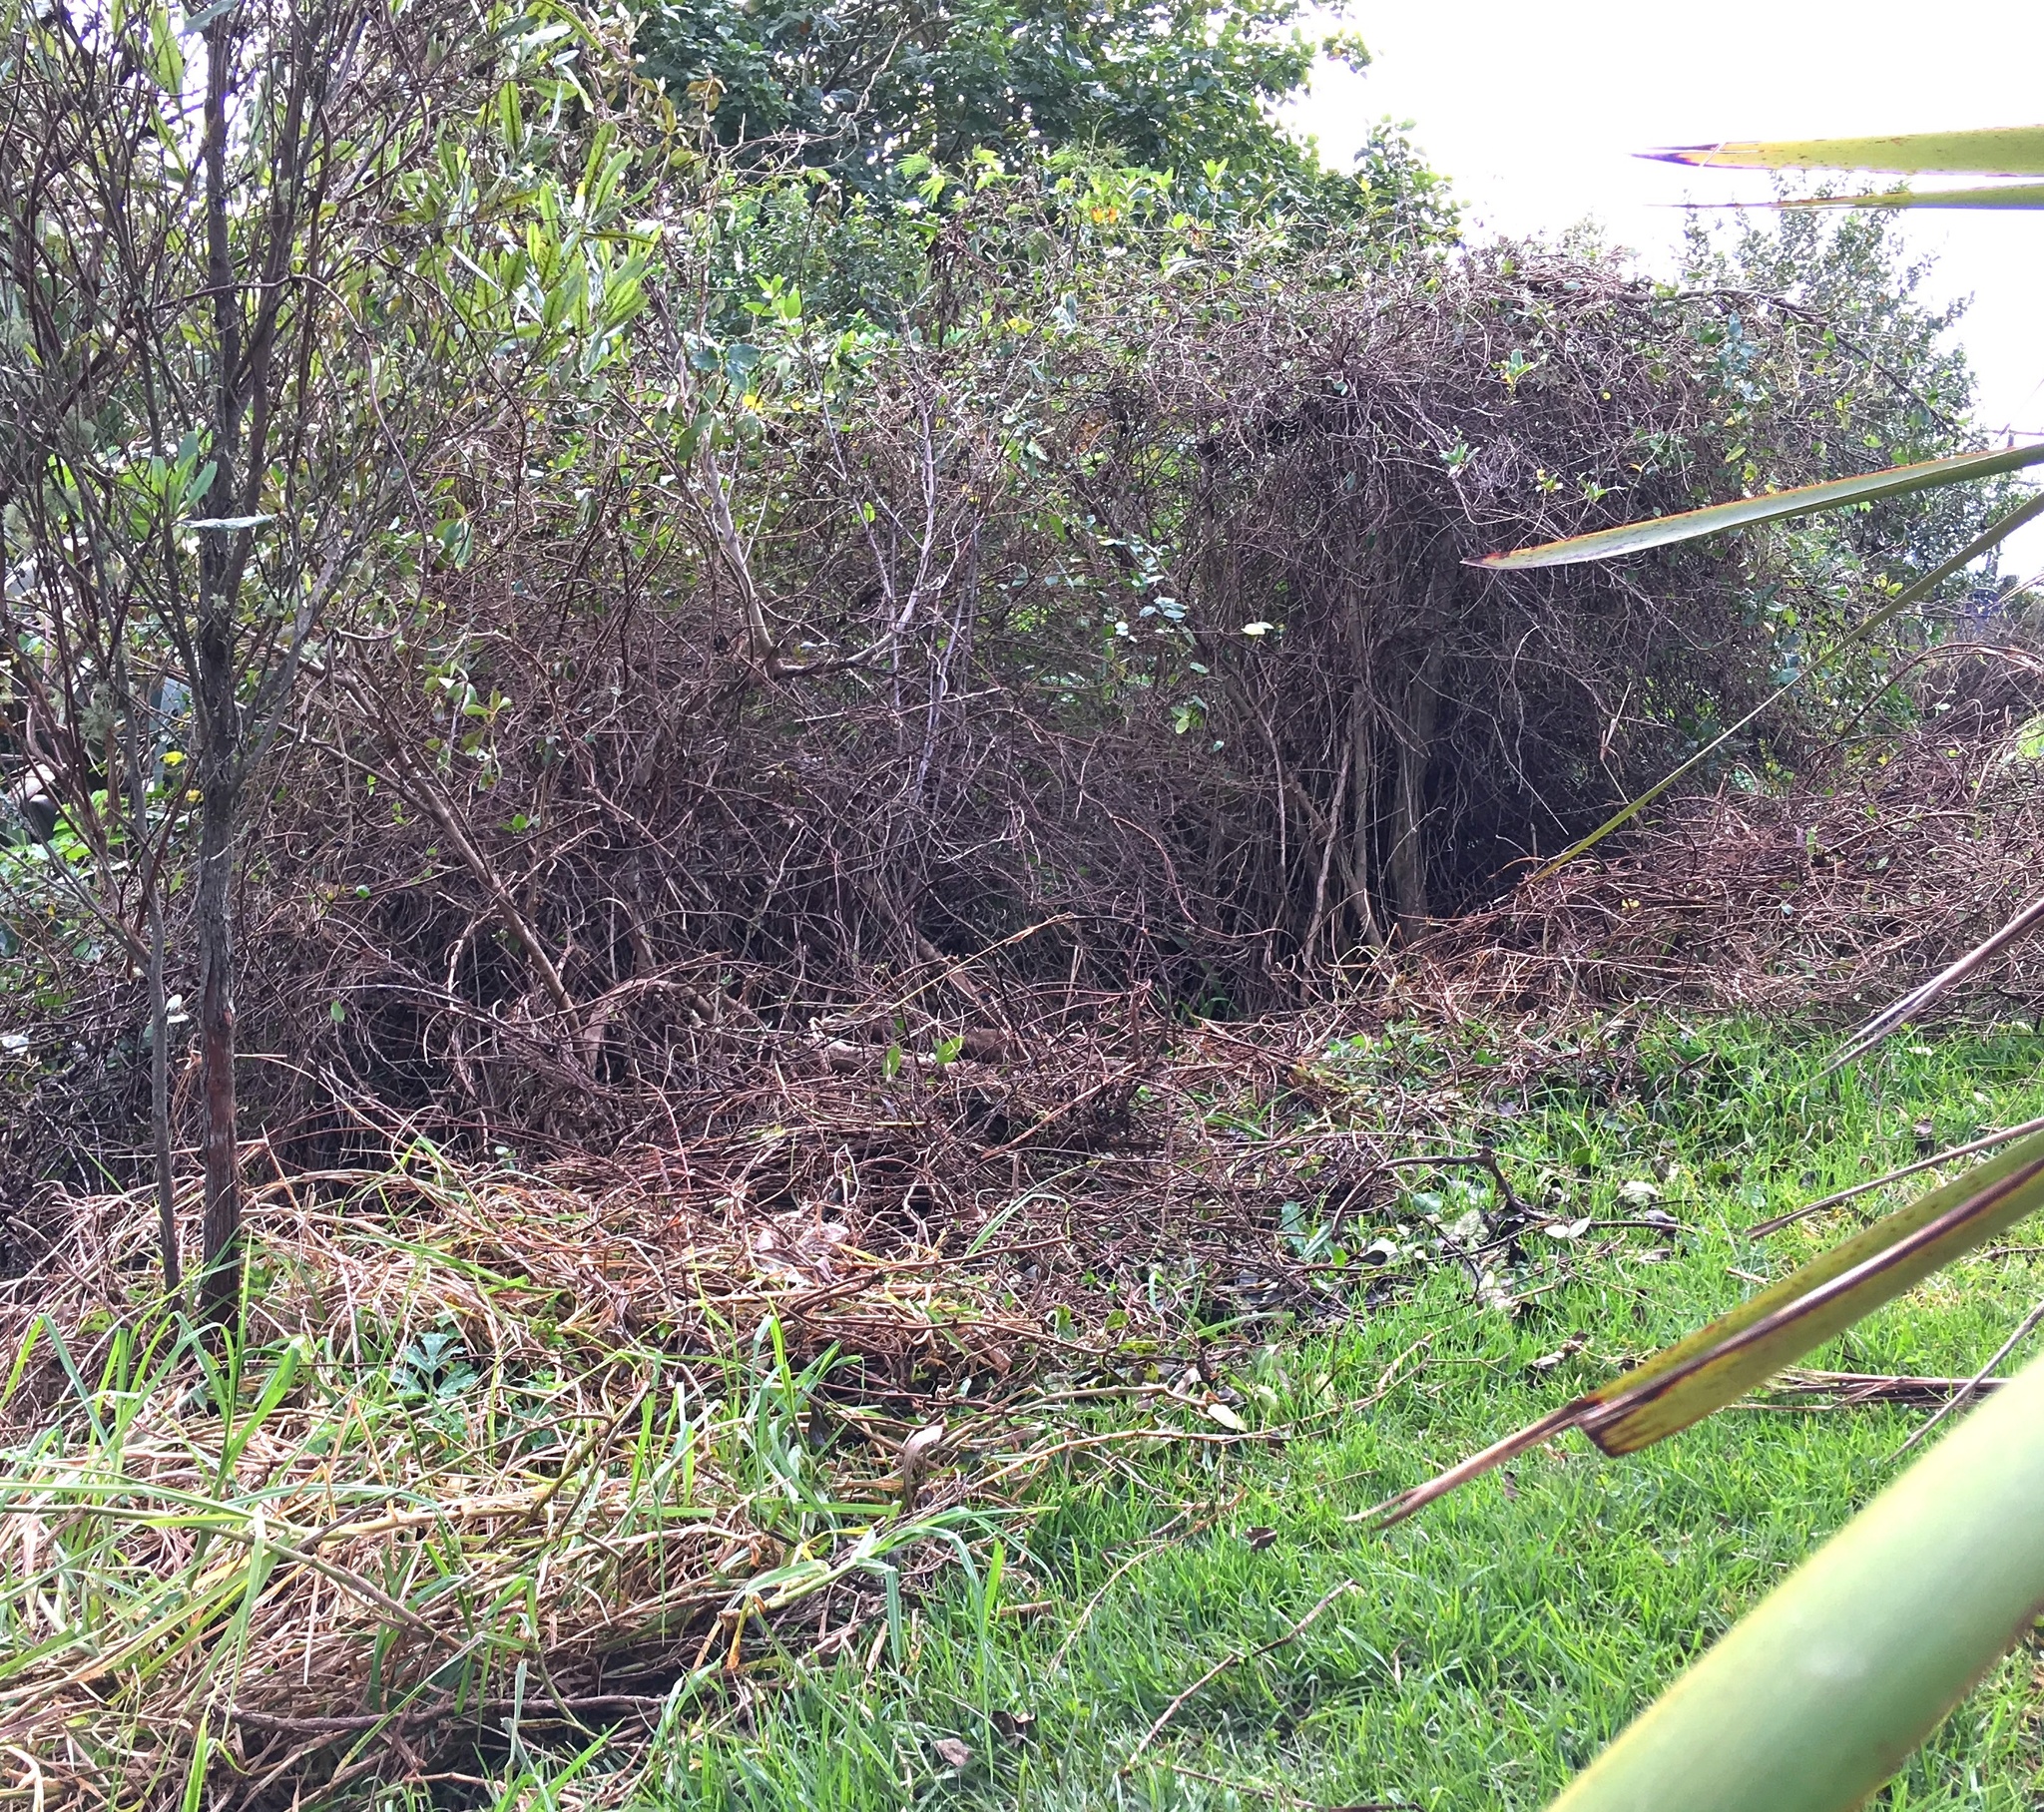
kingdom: Plantae
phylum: Tracheophyta
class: Liliopsida
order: Poales
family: Poaceae
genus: Cenchrus
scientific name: Cenchrus clandestinus
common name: Kikuyugrass
